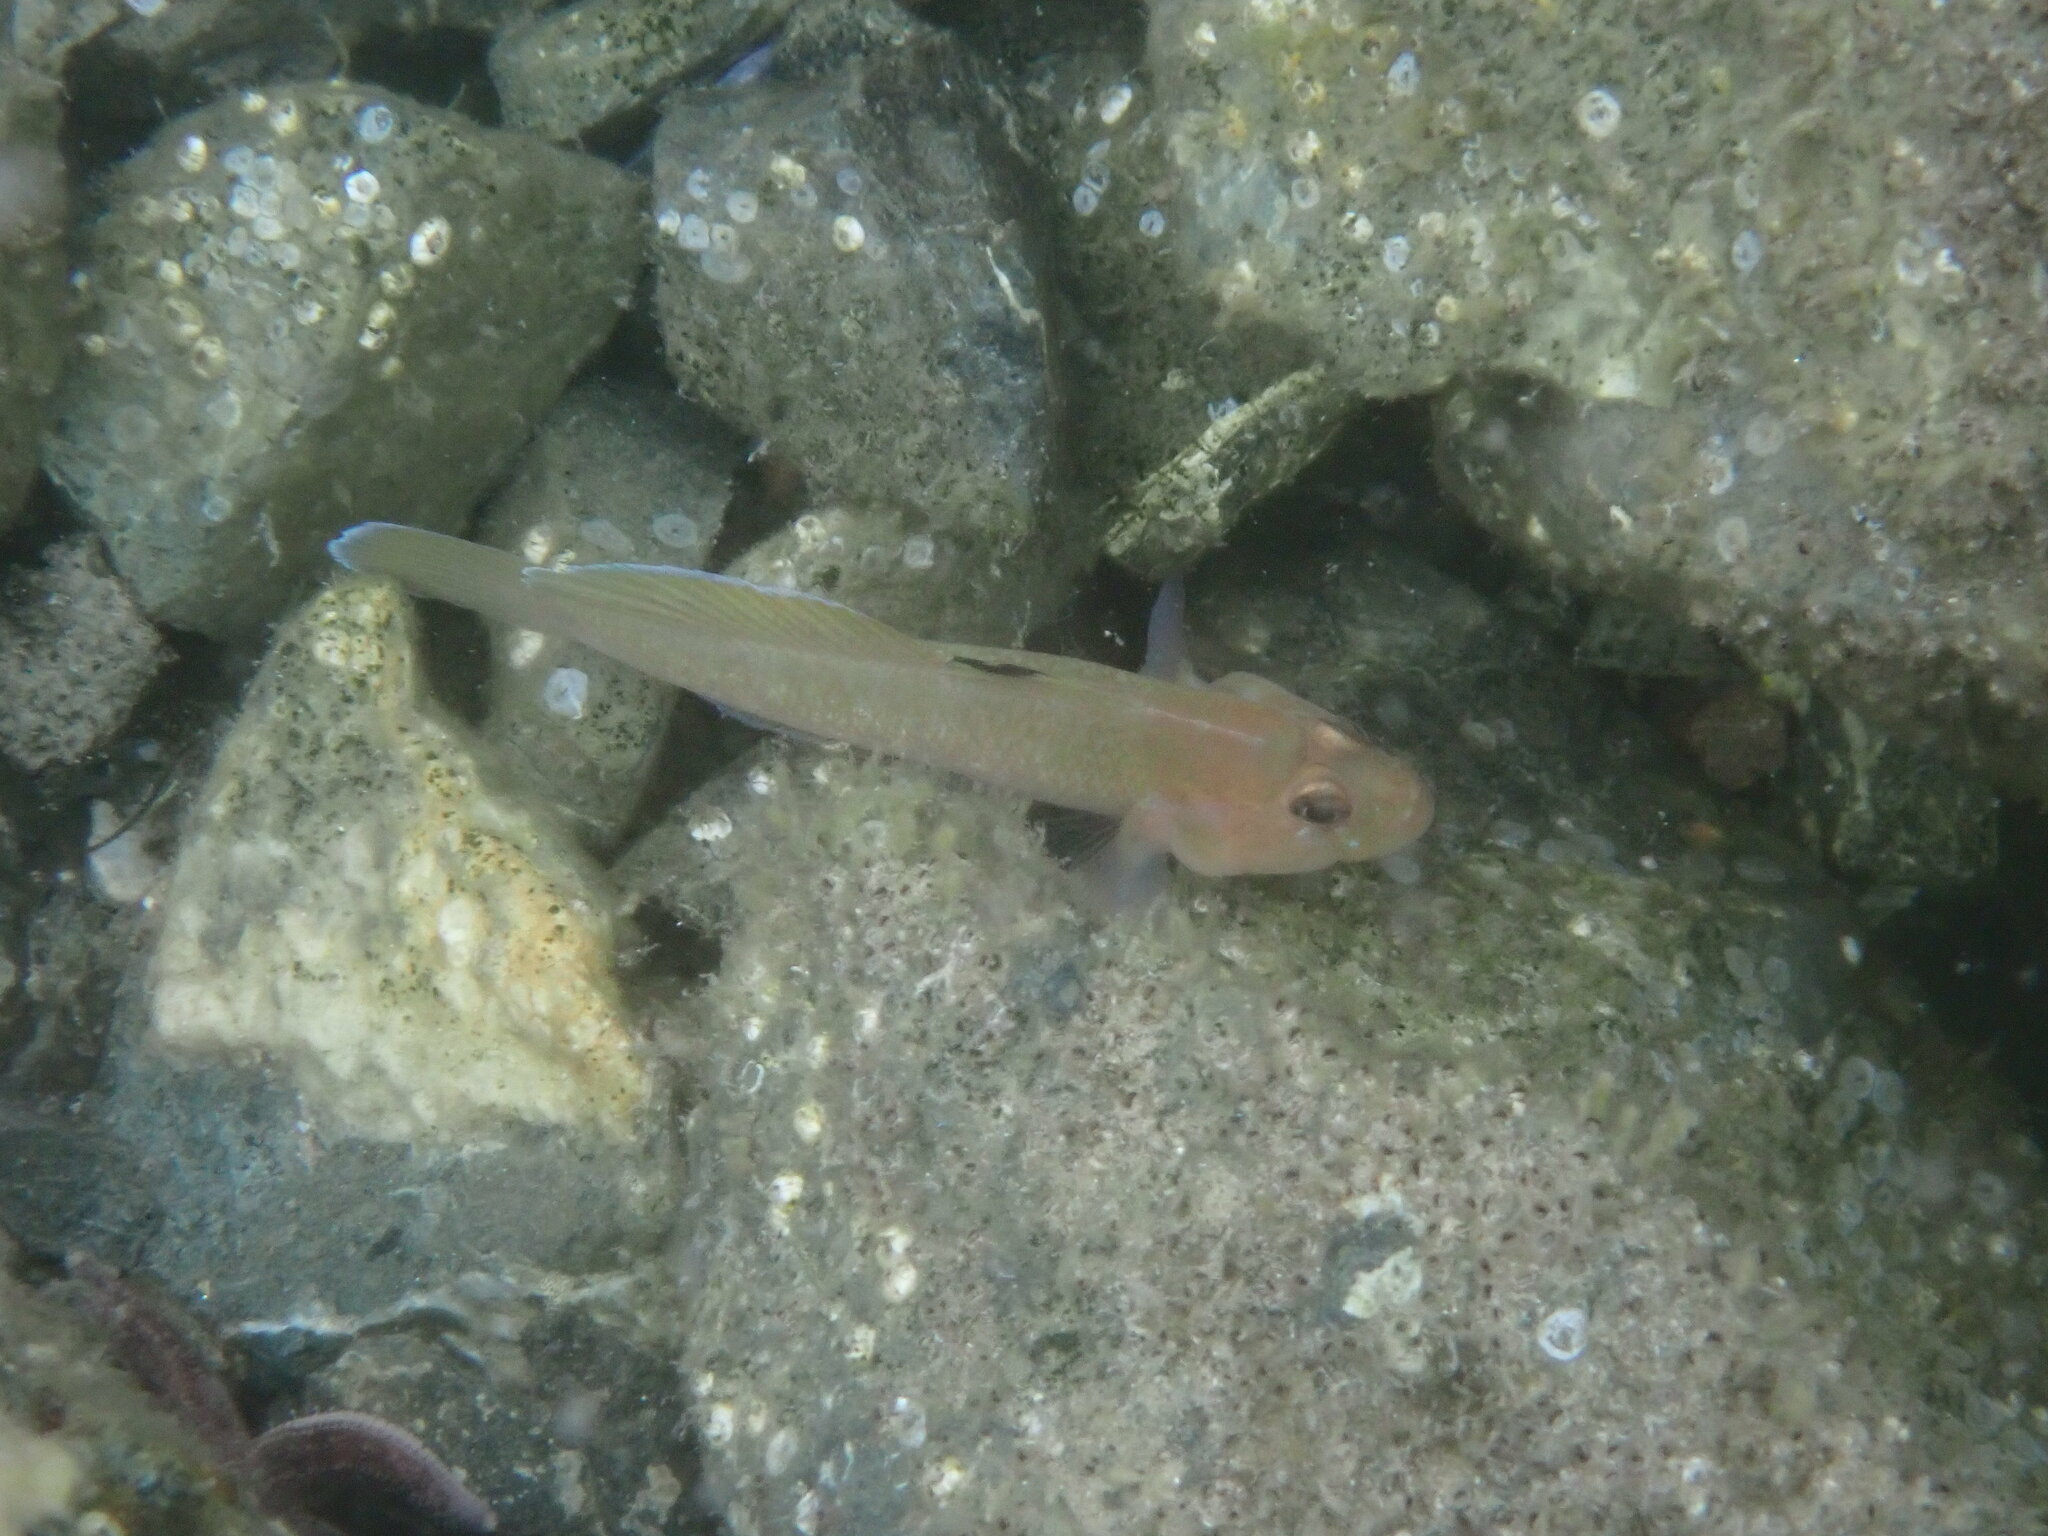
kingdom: Animalia
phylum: Chordata
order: Perciformes
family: Gobiidae
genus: Rhinogobiops
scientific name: Rhinogobiops nicholsii
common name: Blackeye goby
